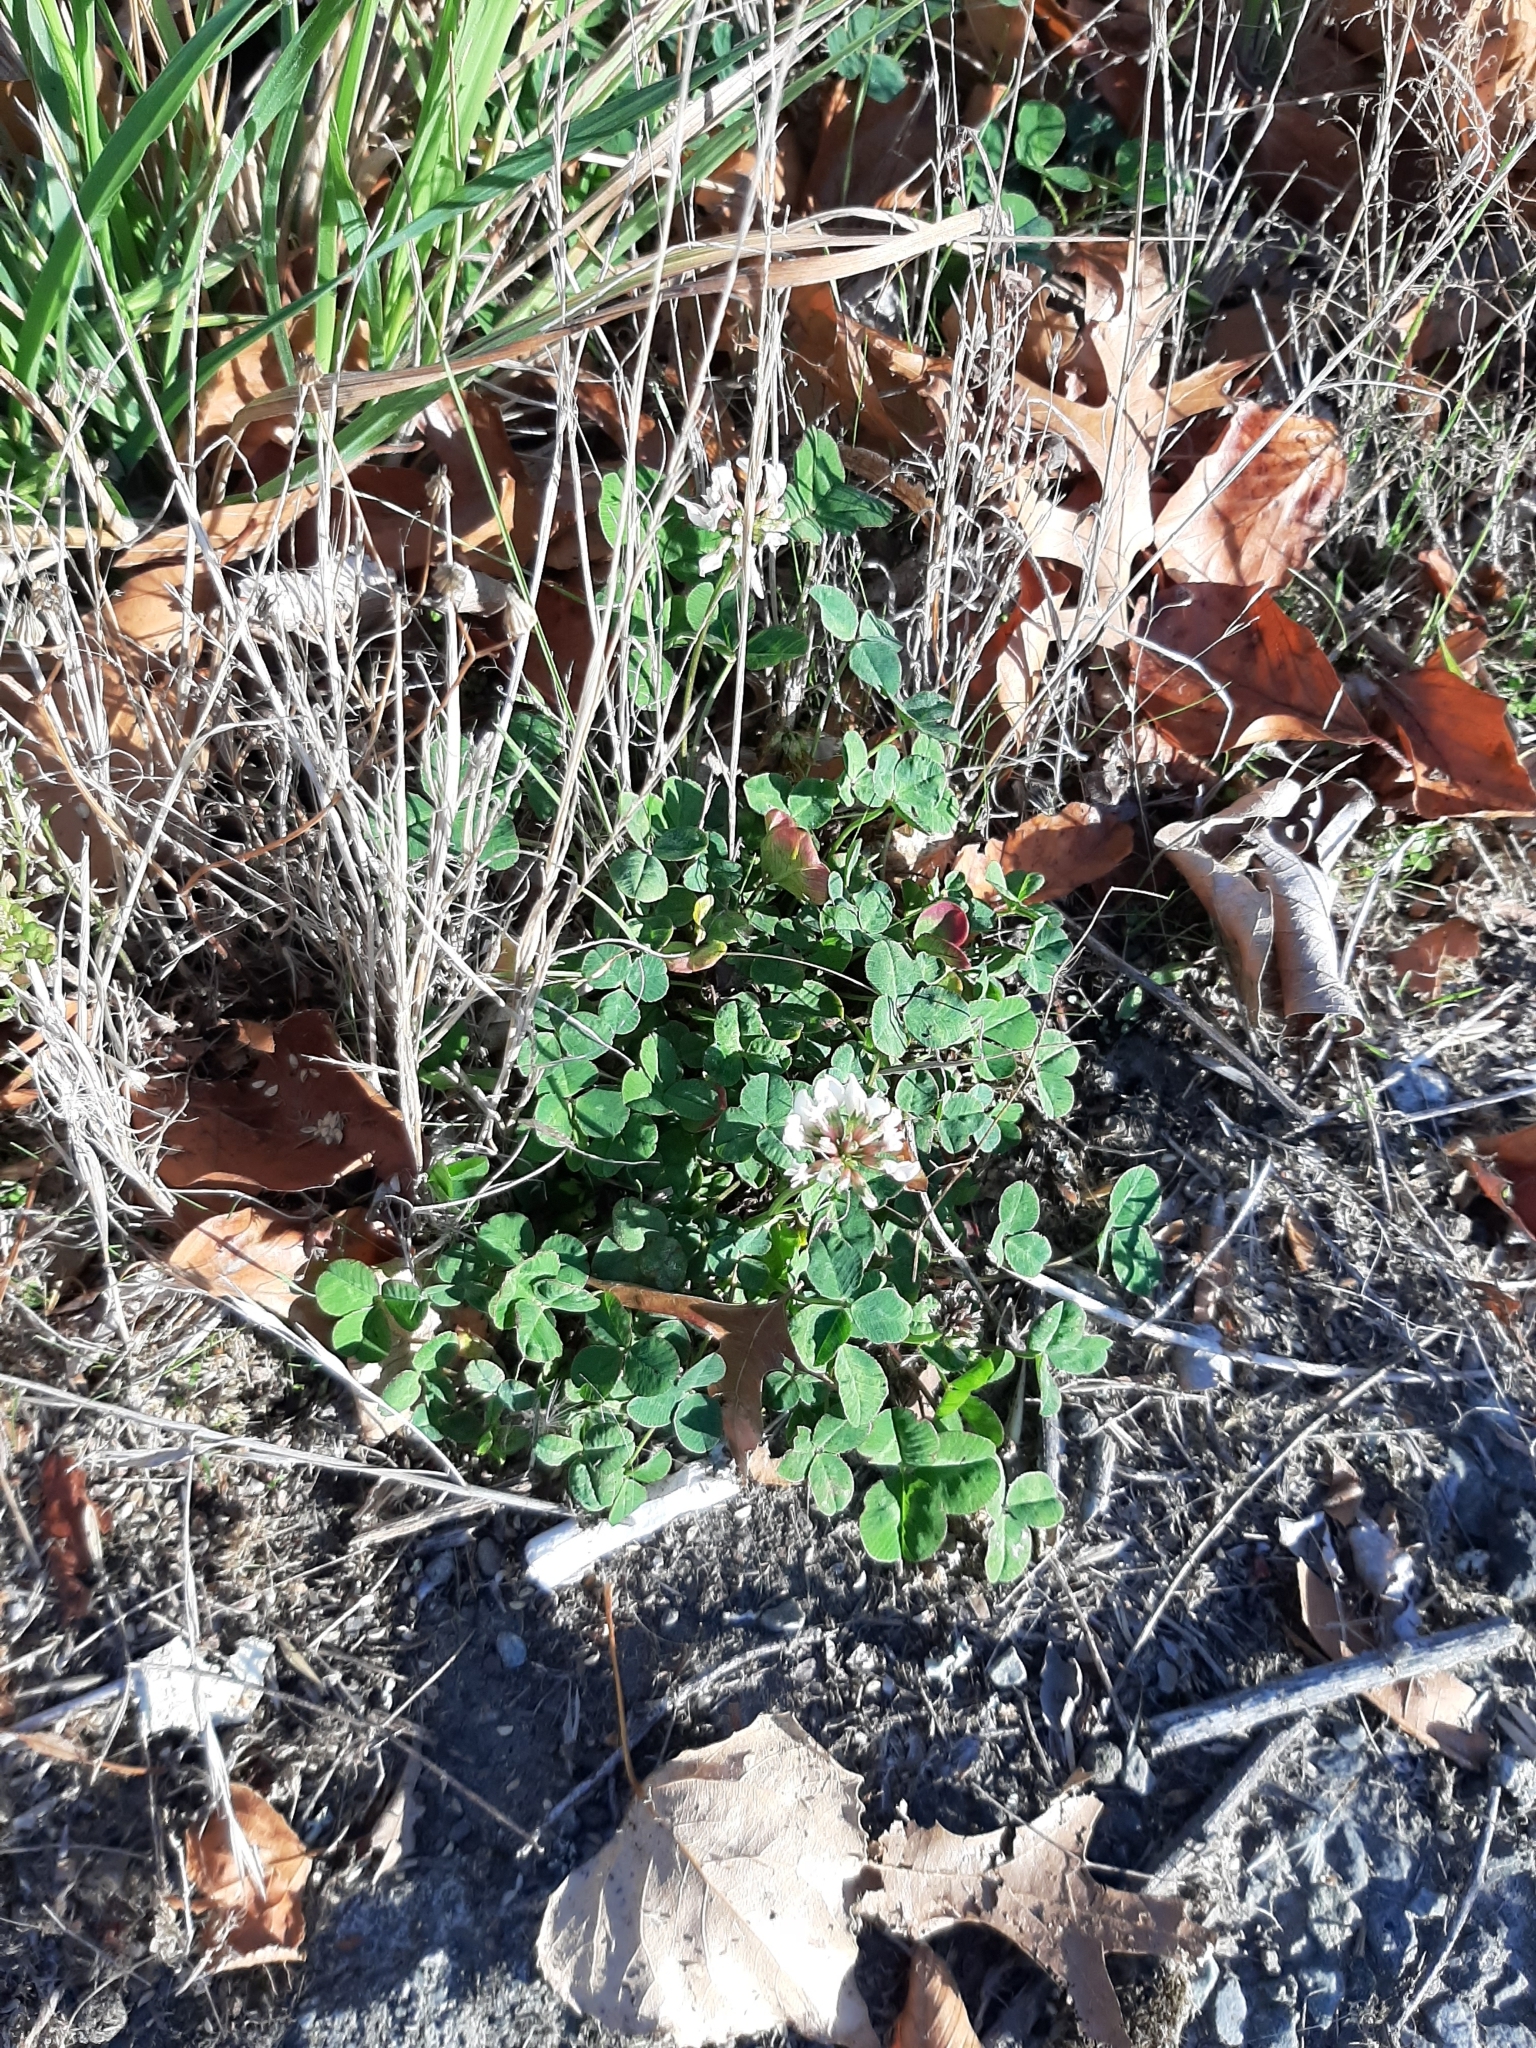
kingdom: Plantae
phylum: Tracheophyta
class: Magnoliopsida
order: Fabales
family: Fabaceae
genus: Trifolium
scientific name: Trifolium repens
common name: White clover
